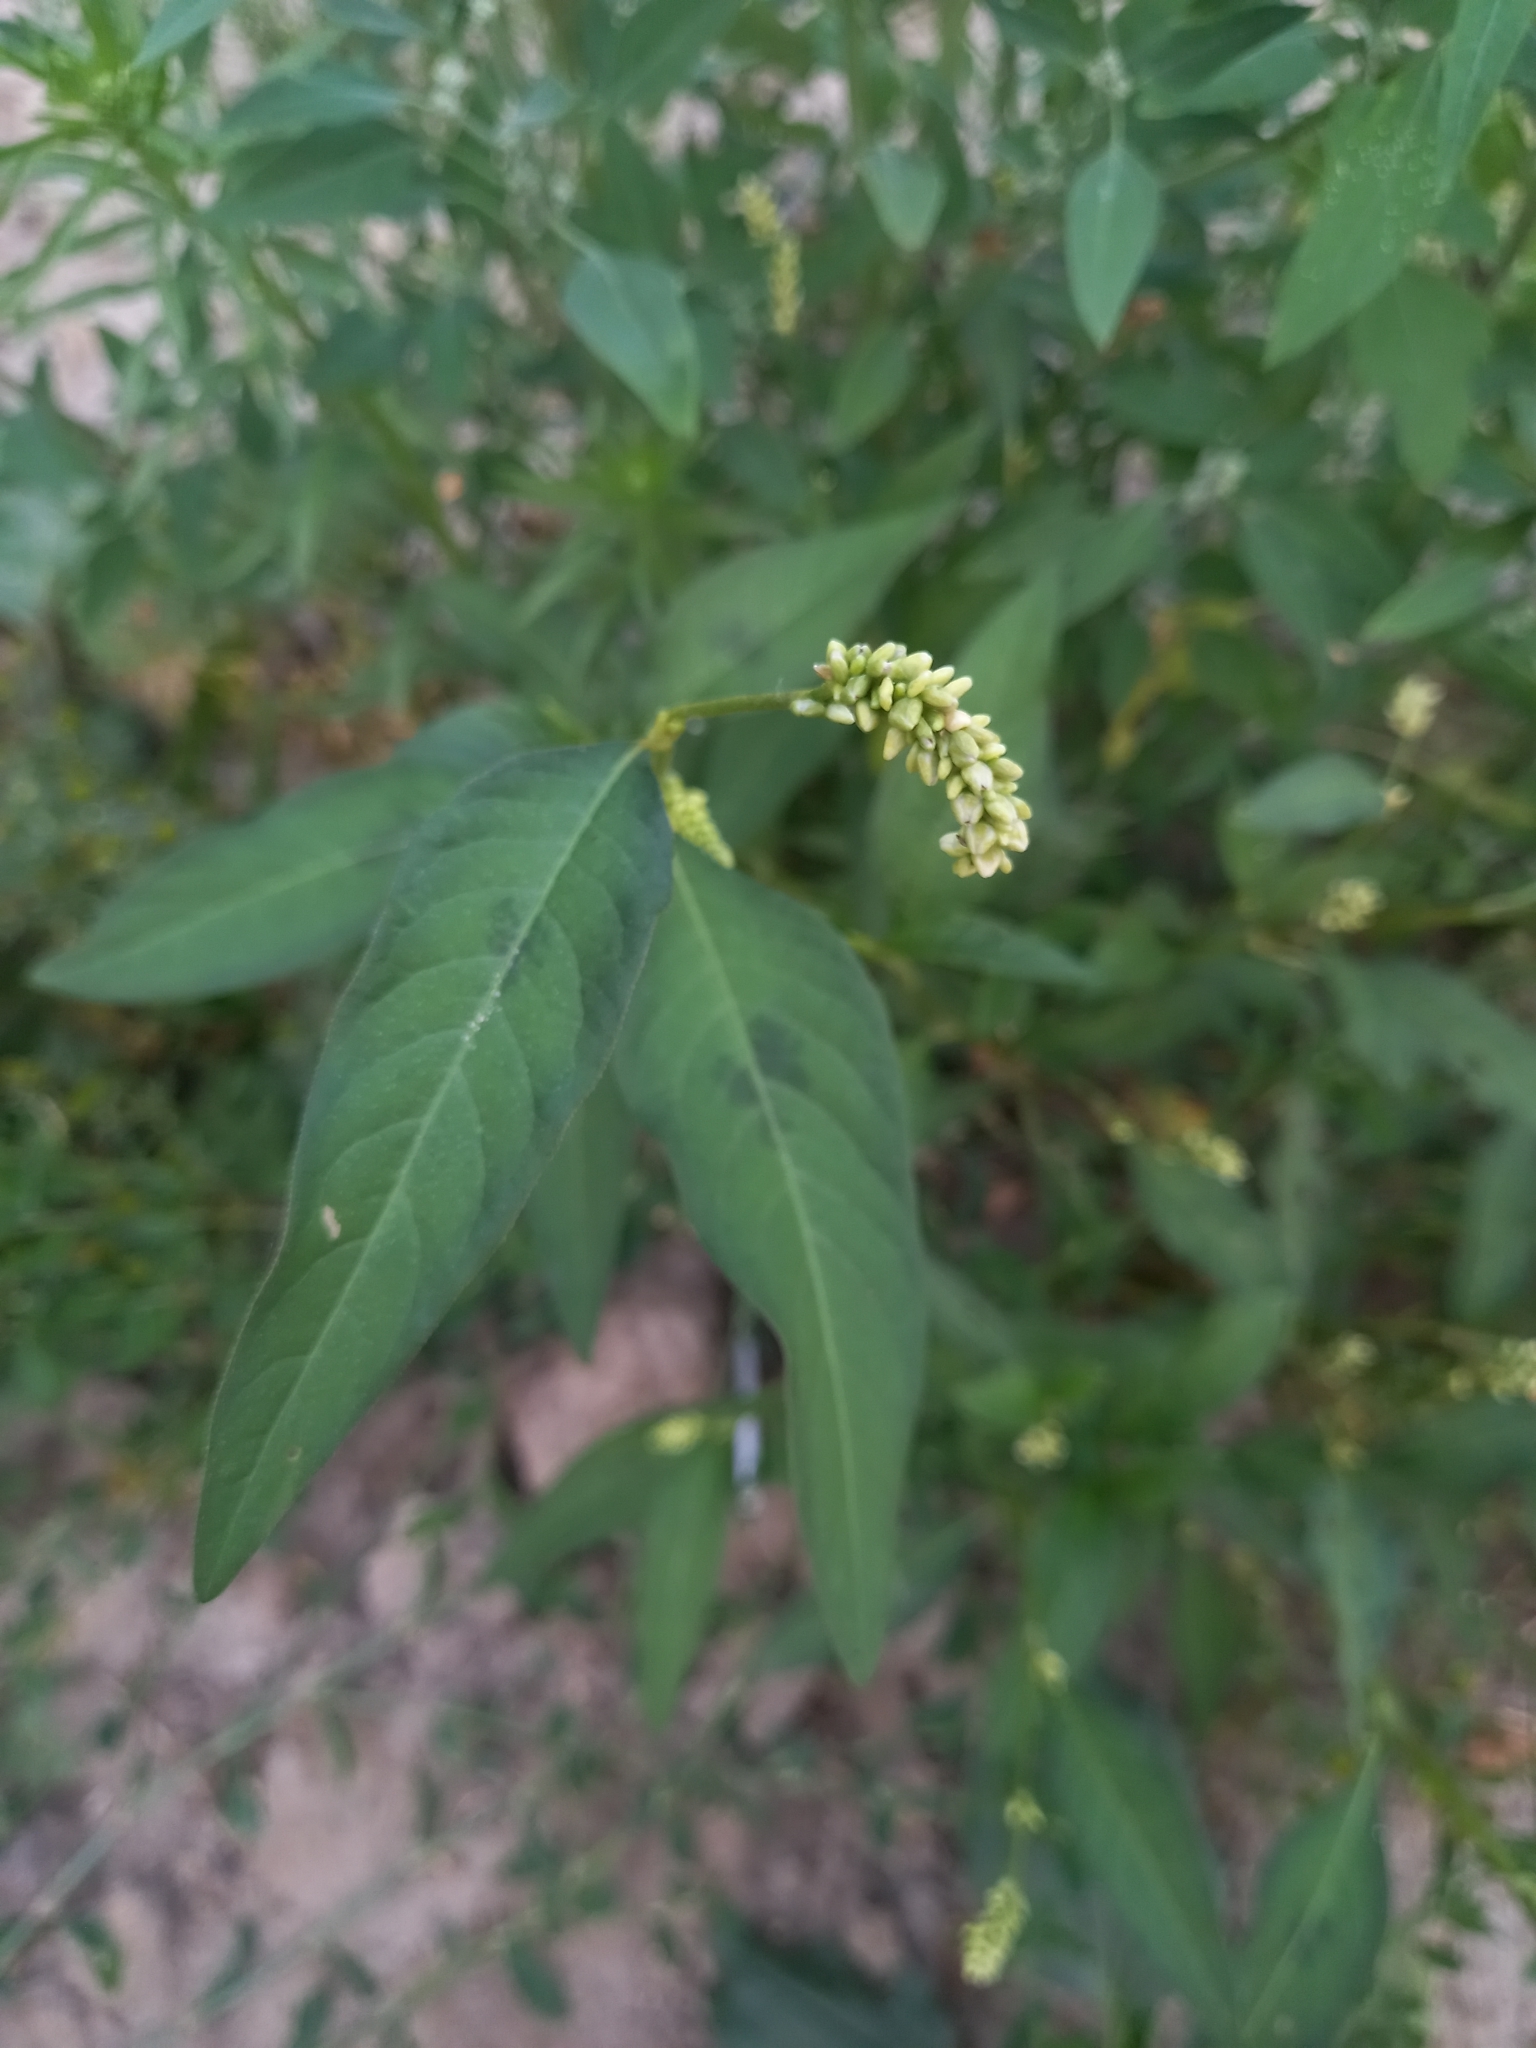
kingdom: Plantae
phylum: Tracheophyta
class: Magnoliopsida
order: Caryophyllales
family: Polygonaceae
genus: Persicaria
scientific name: Persicaria lapathifolia
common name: Curlytop knotweed
